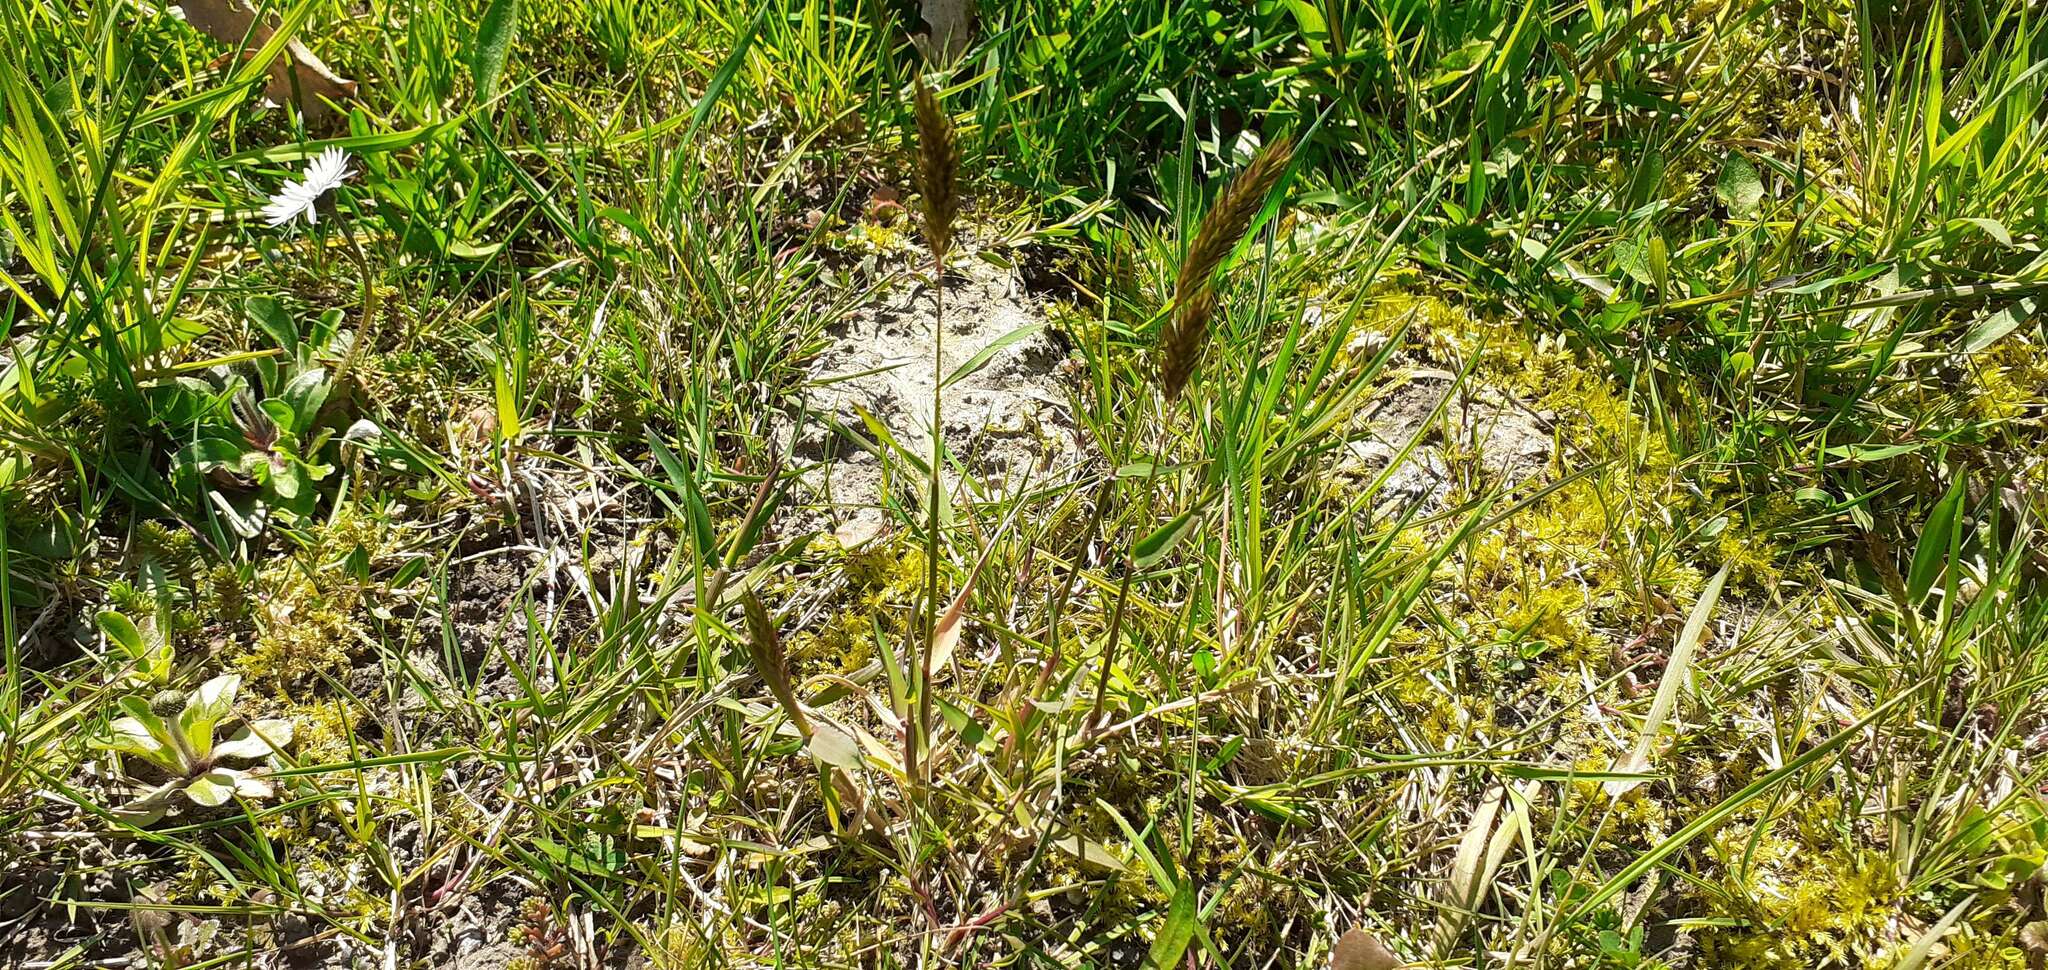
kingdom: Plantae
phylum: Tracheophyta
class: Liliopsida
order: Poales
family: Poaceae
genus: Anthoxanthum
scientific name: Anthoxanthum odoratum
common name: Sweet vernalgrass
